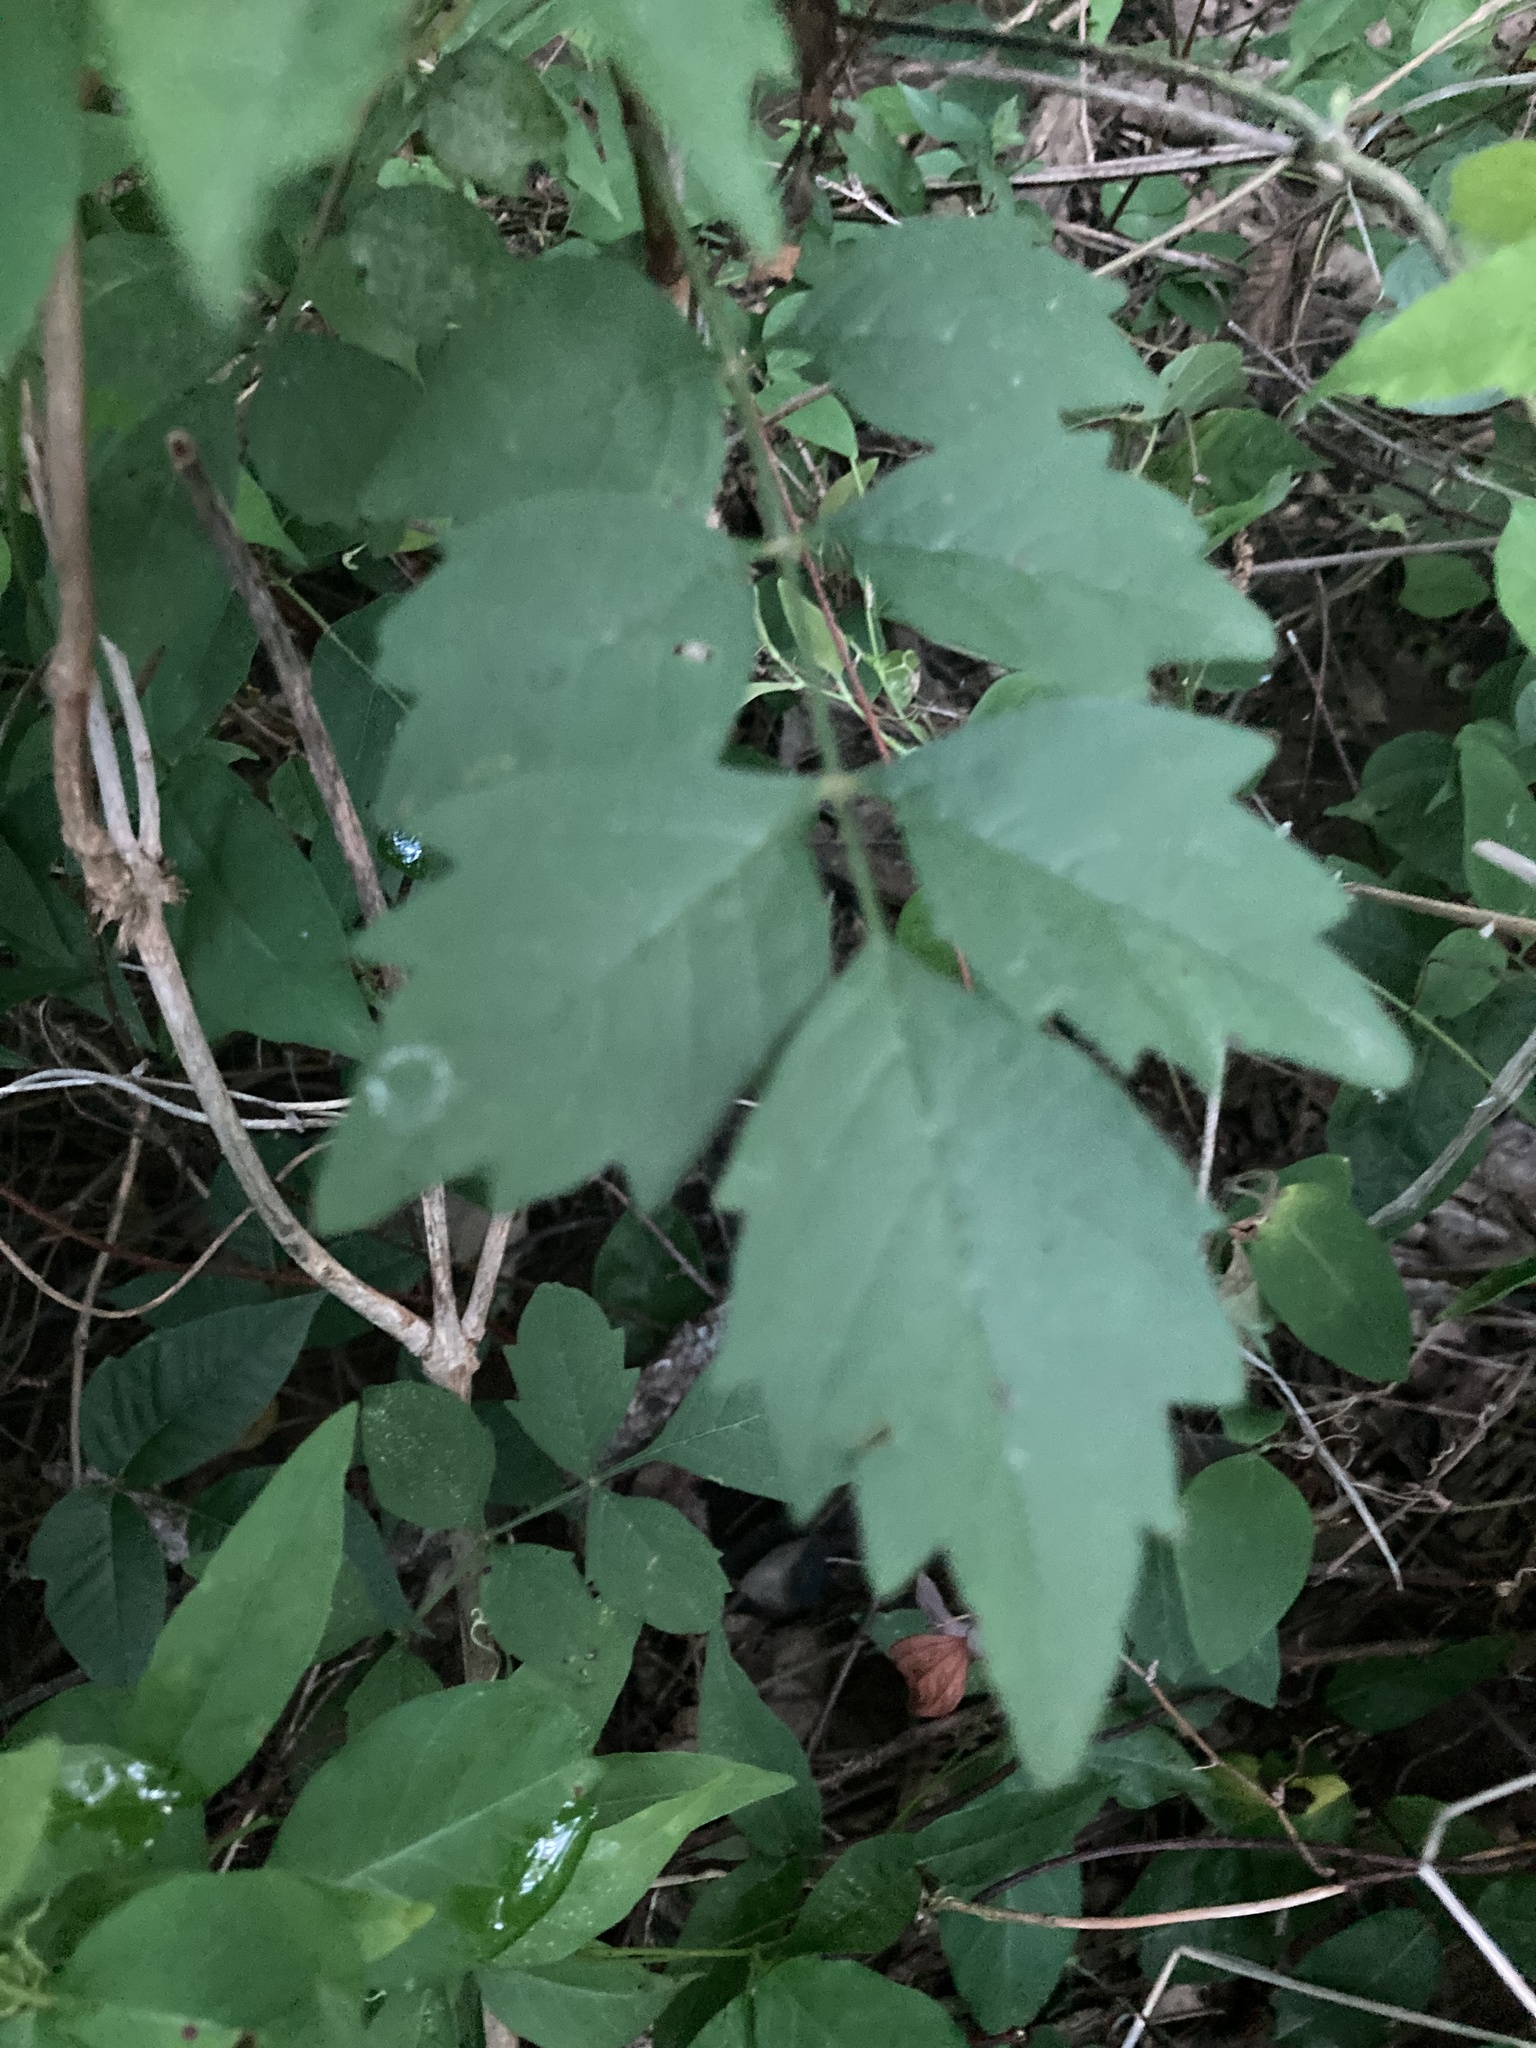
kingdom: Plantae
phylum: Tracheophyta
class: Magnoliopsida
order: Lamiales
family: Bignoniaceae
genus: Campsis
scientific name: Campsis radicans
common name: Trumpet-creeper
